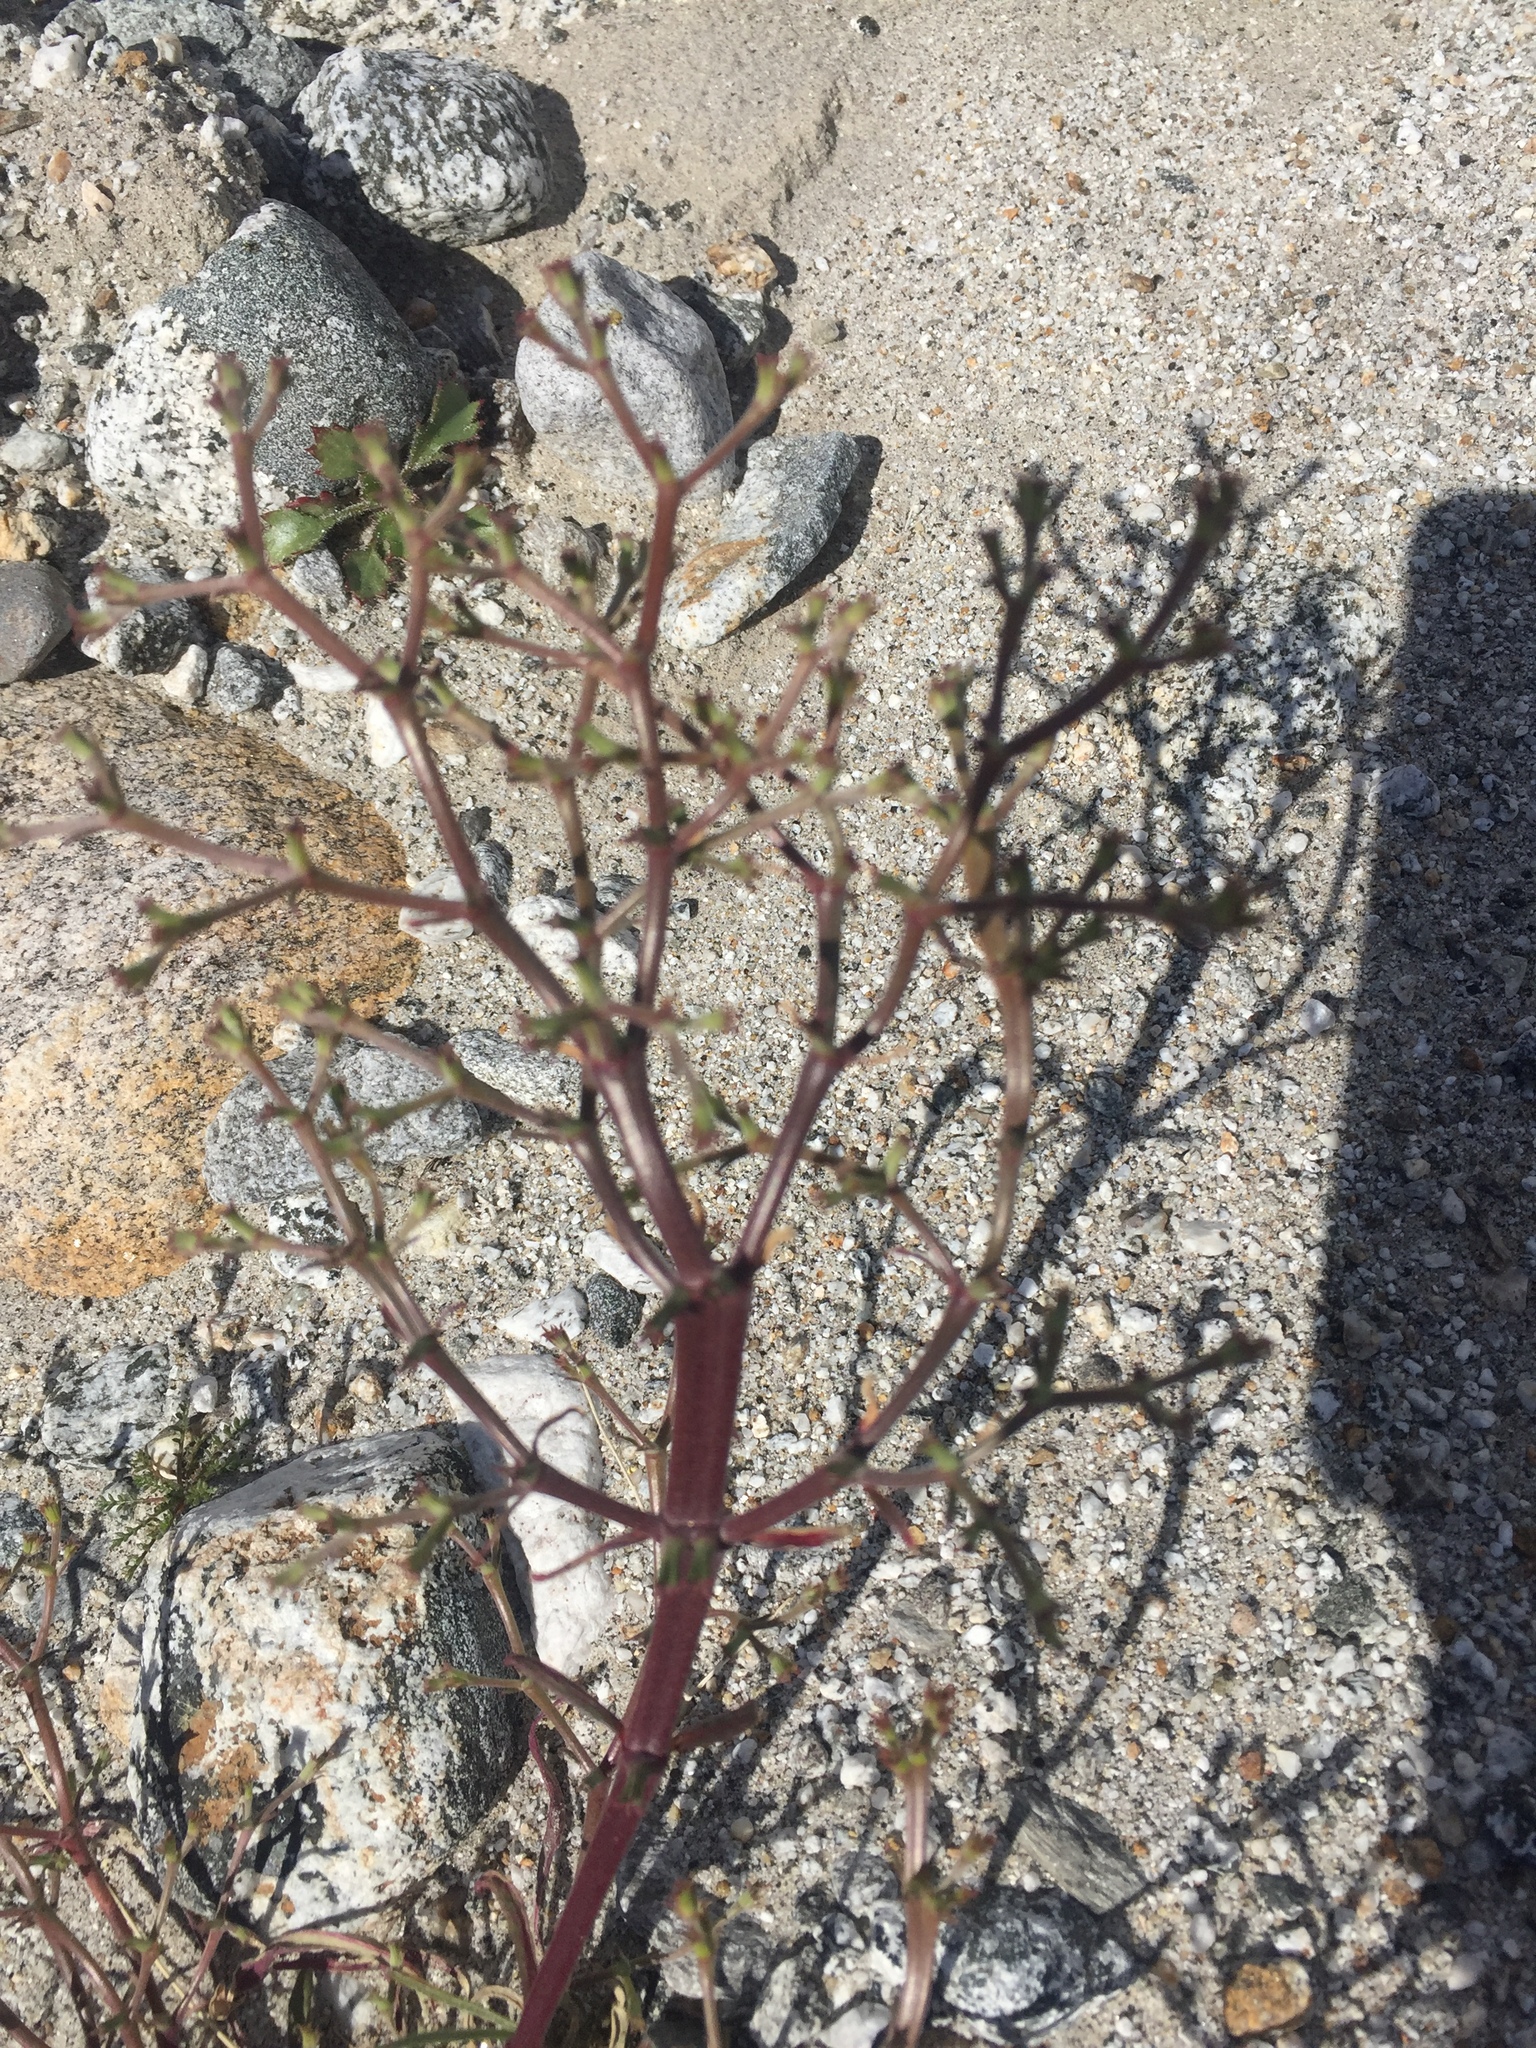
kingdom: Plantae
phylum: Tracheophyta
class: Magnoliopsida
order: Caryophyllales
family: Polygonaceae
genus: Chorizanthe
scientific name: Chorizanthe brevicornu
